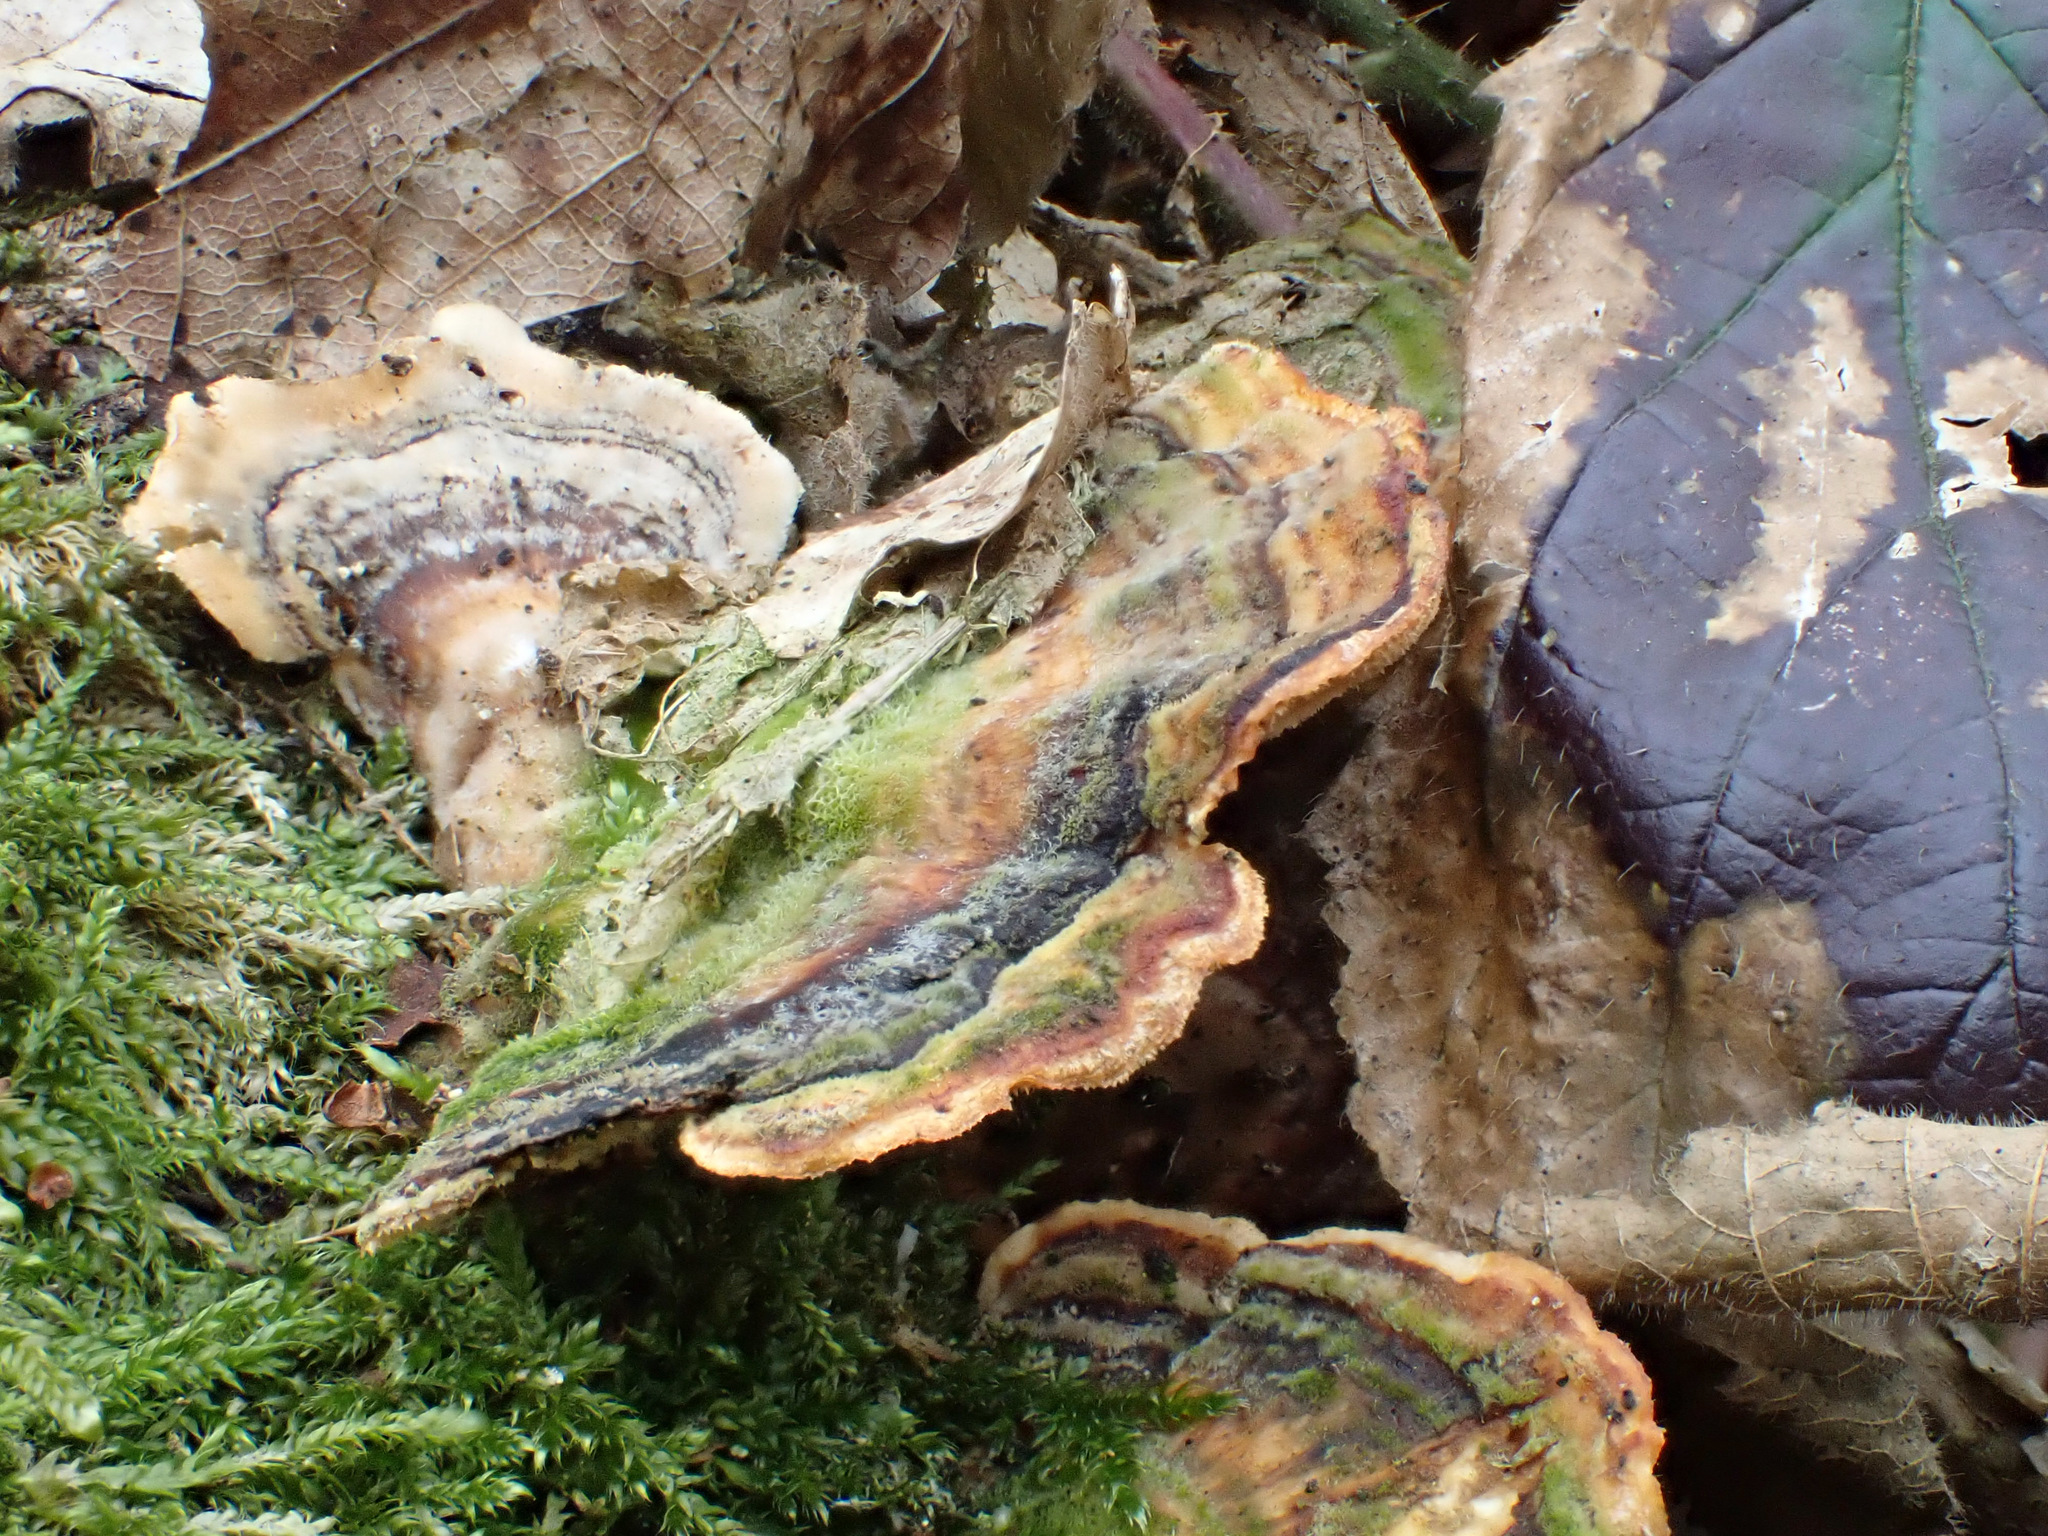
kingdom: Fungi
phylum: Basidiomycota
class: Agaricomycetes
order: Polyporales
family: Polyporaceae
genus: Trametes
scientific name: Trametes versicolor
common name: Turkeytail
